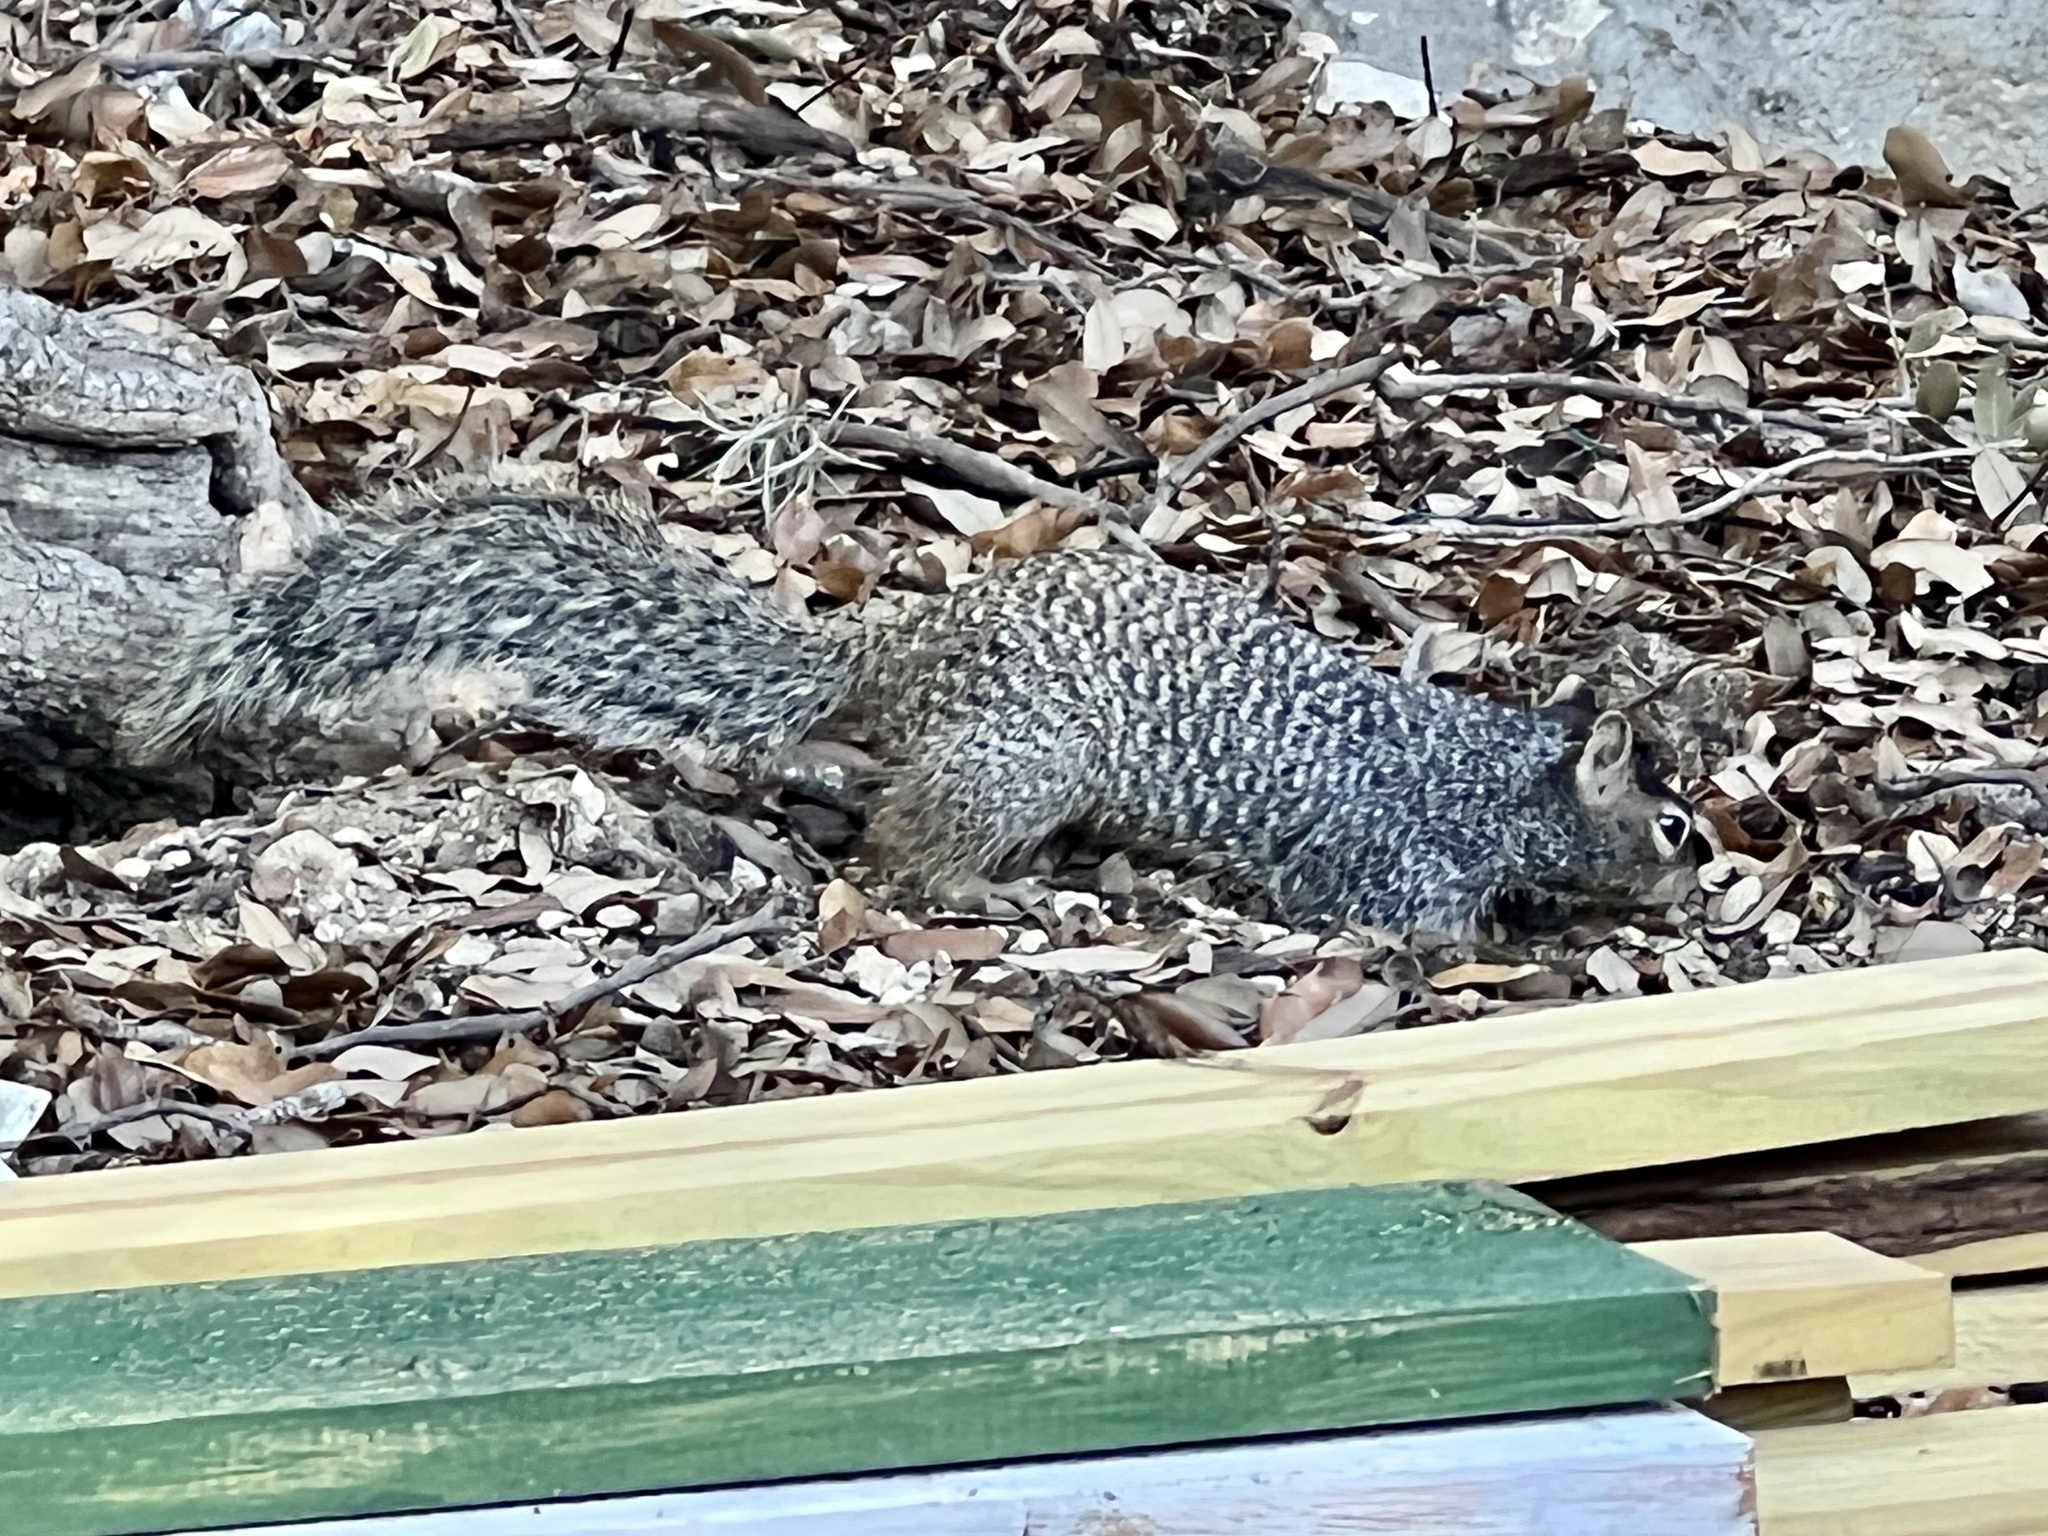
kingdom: Animalia
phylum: Chordata
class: Mammalia
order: Rodentia
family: Sciuridae
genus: Otospermophilus
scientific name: Otospermophilus variegatus
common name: Rock squirrel
